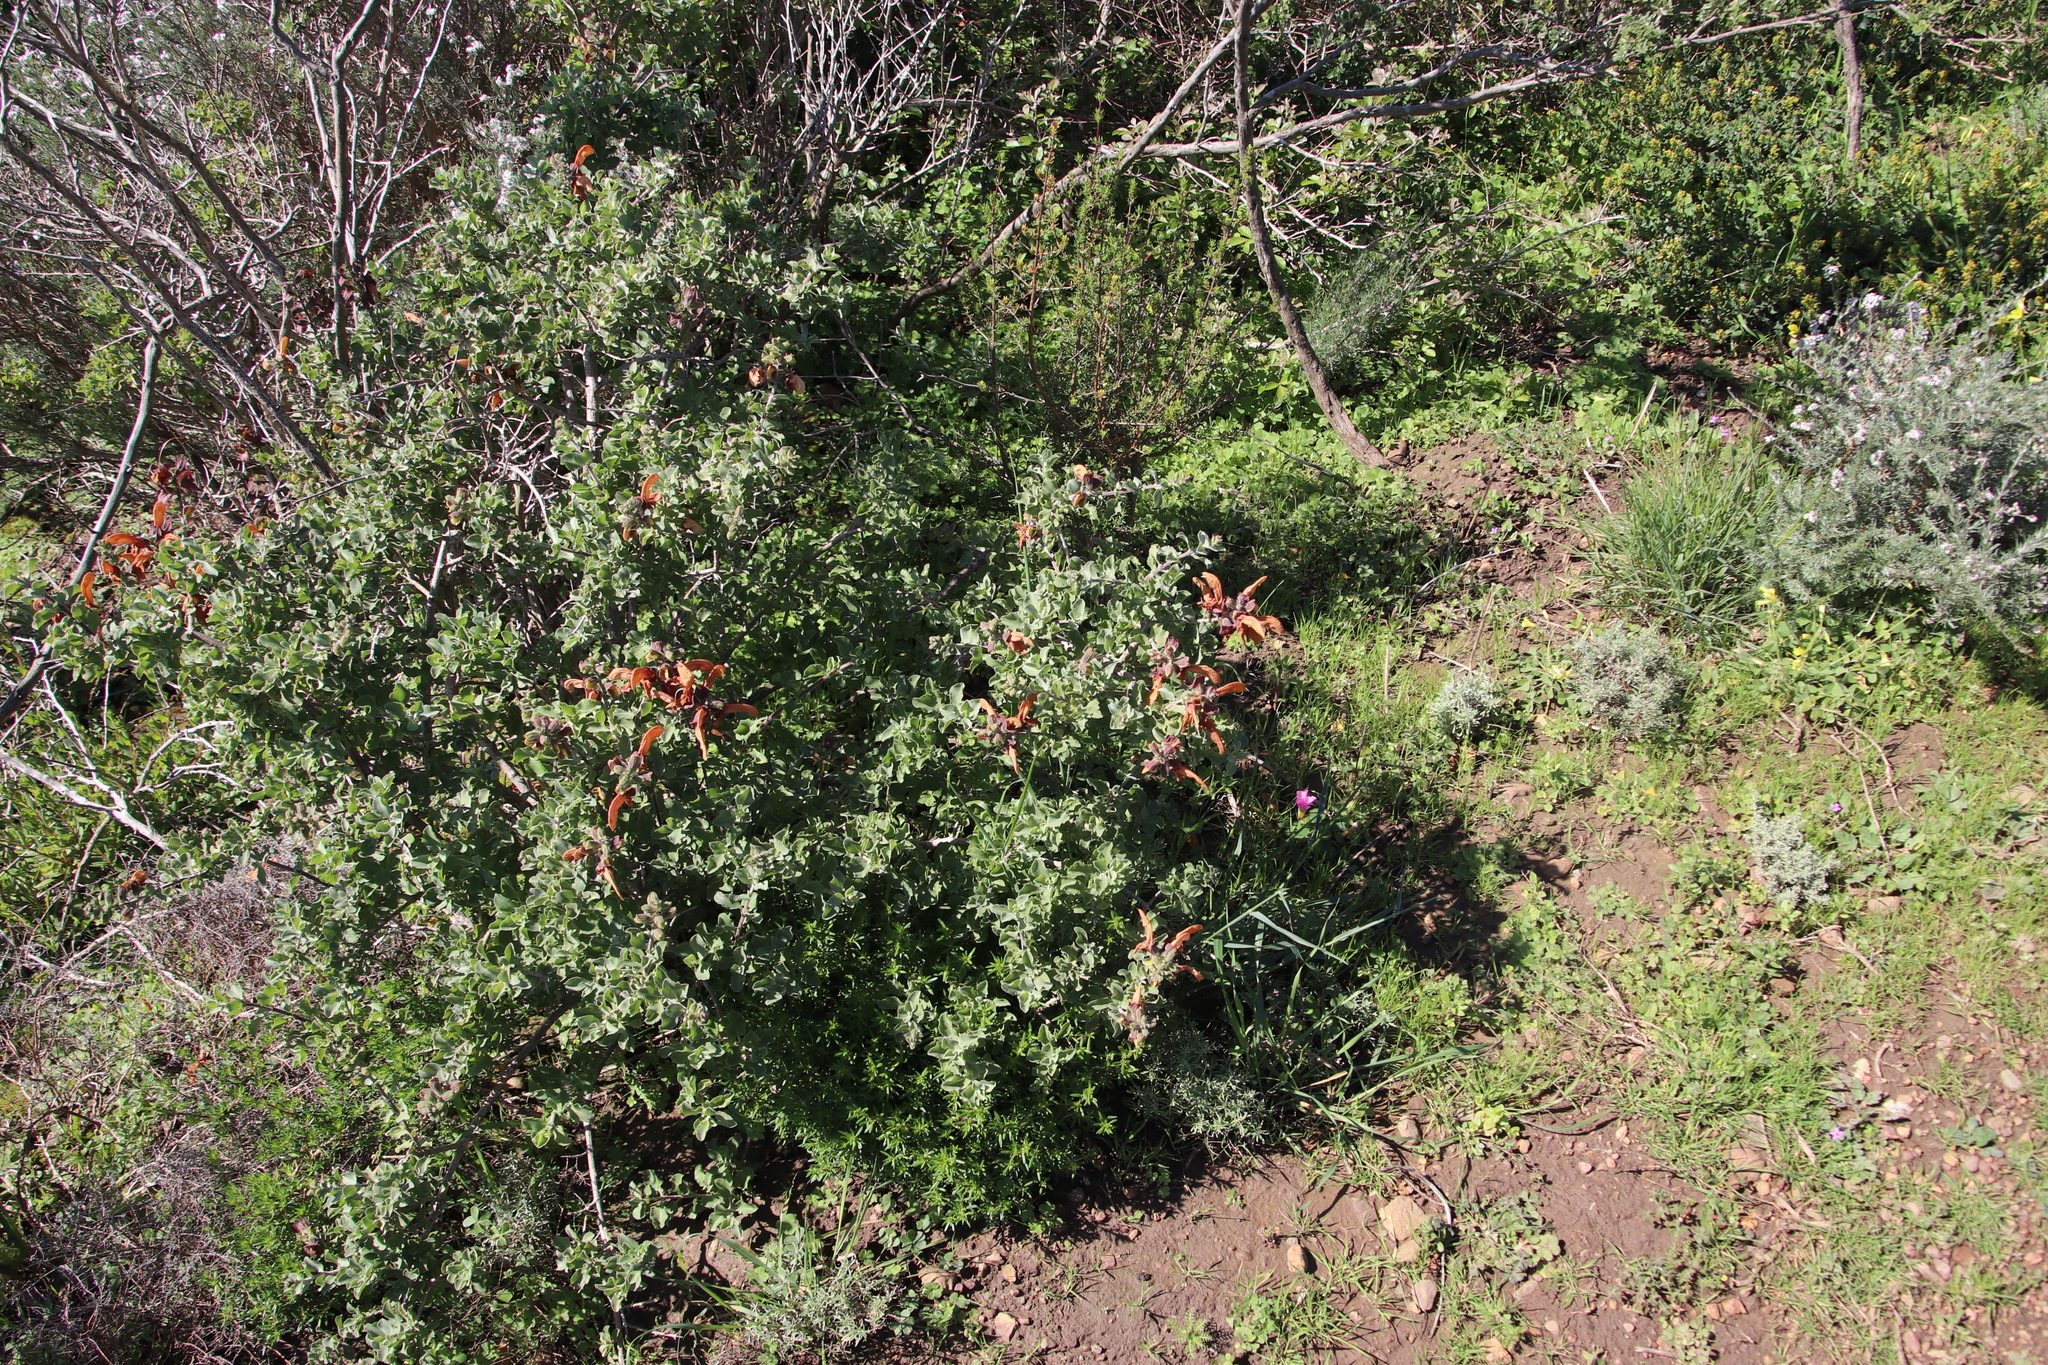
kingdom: Plantae
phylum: Tracheophyta
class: Magnoliopsida
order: Lamiales
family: Lamiaceae
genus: Salvia
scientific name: Salvia aurea
